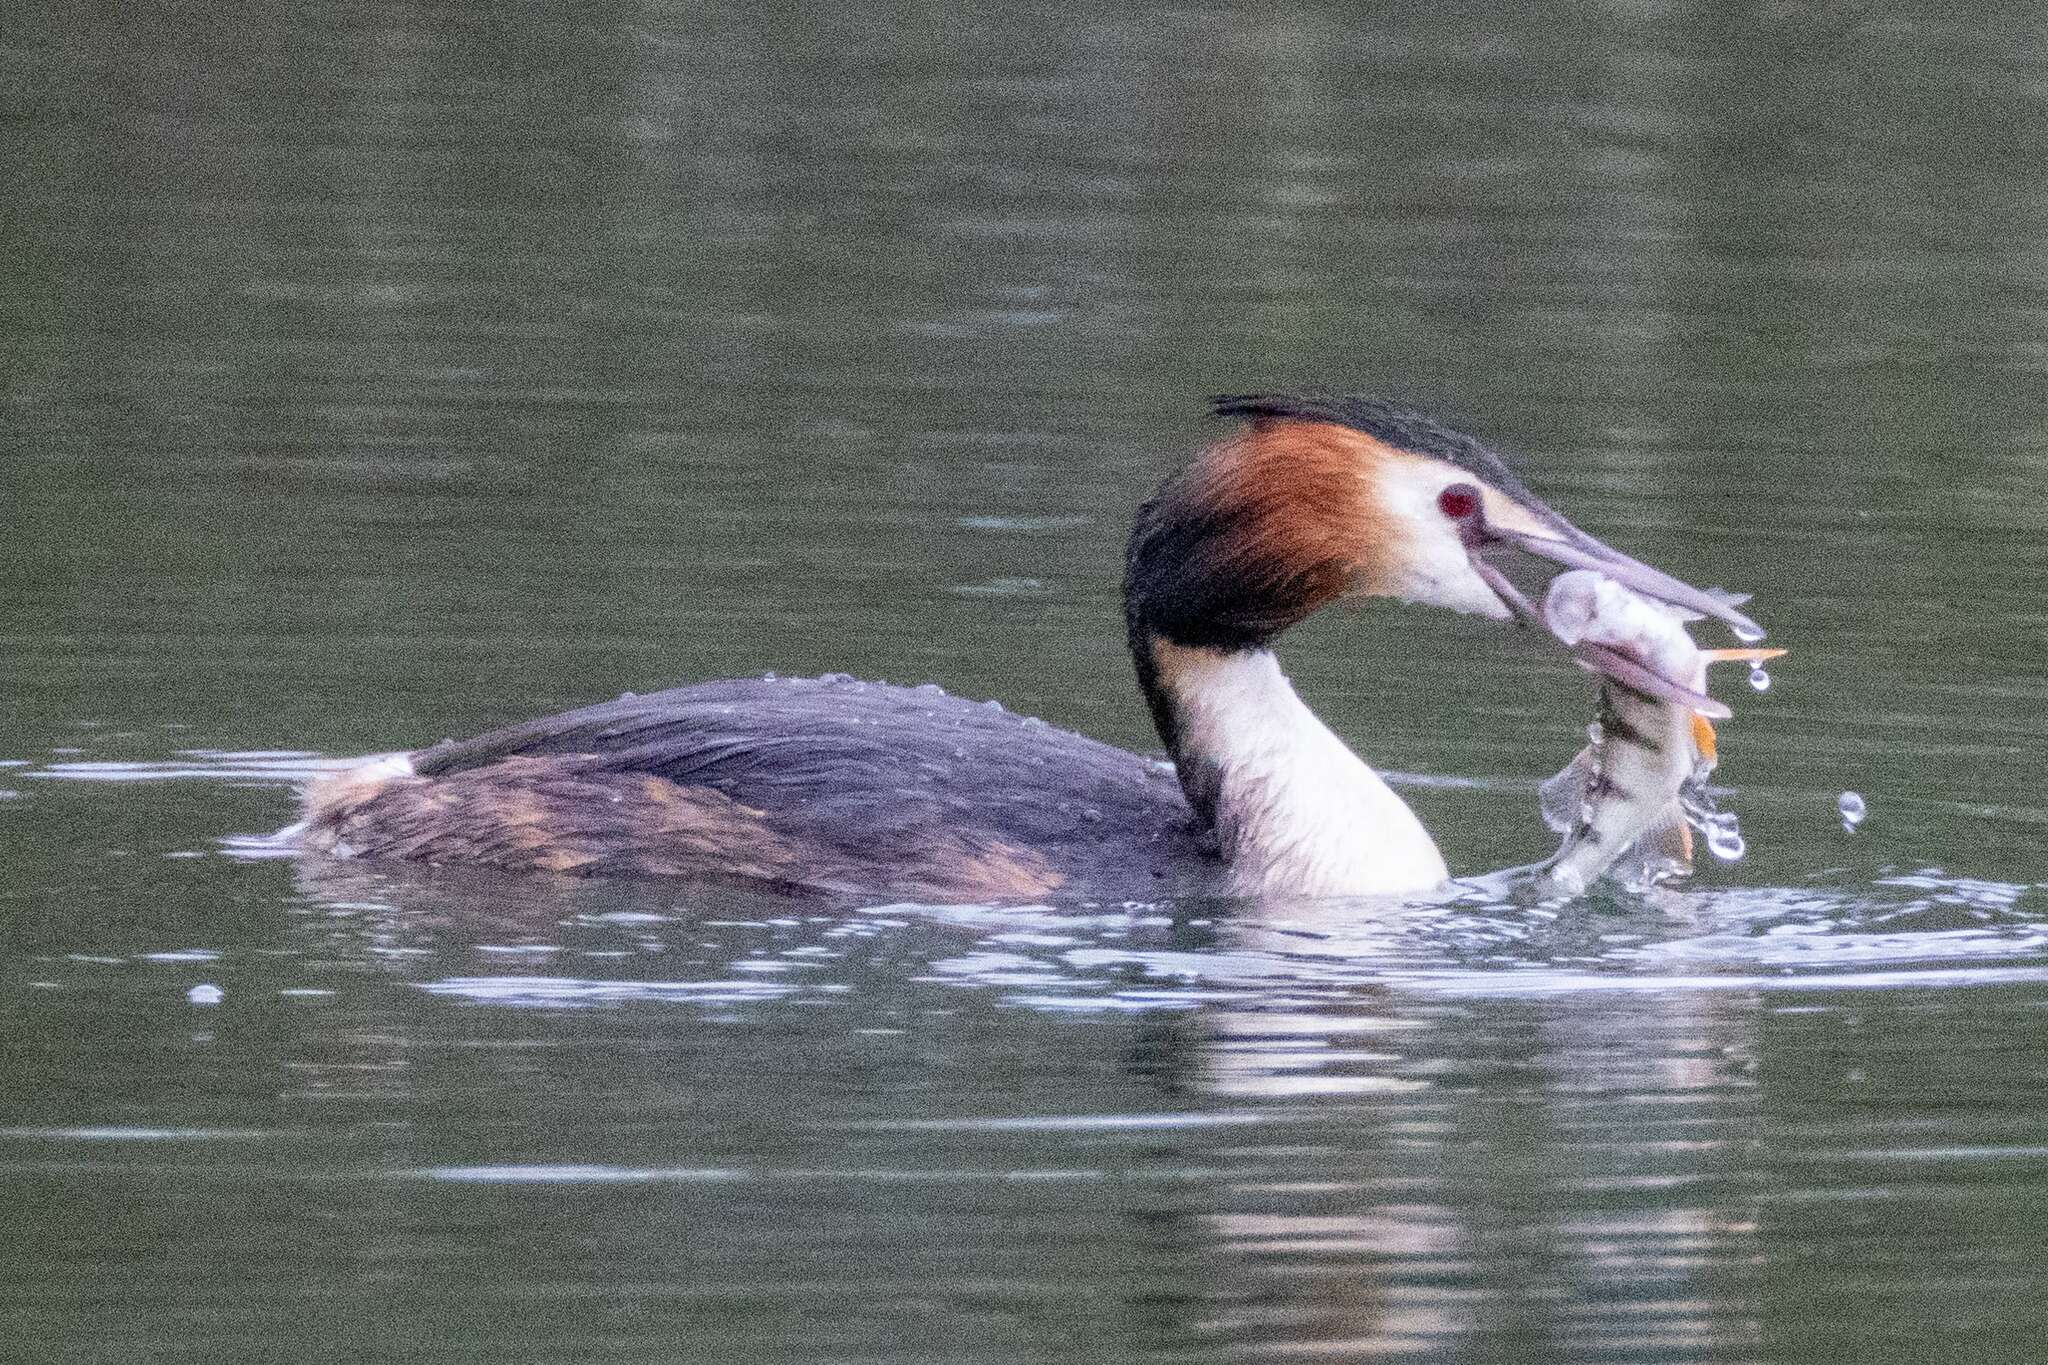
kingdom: Animalia
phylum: Chordata
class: Aves
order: Podicipediformes
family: Podicipedidae
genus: Podiceps
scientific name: Podiceps cristatus
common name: Great crested grebe
